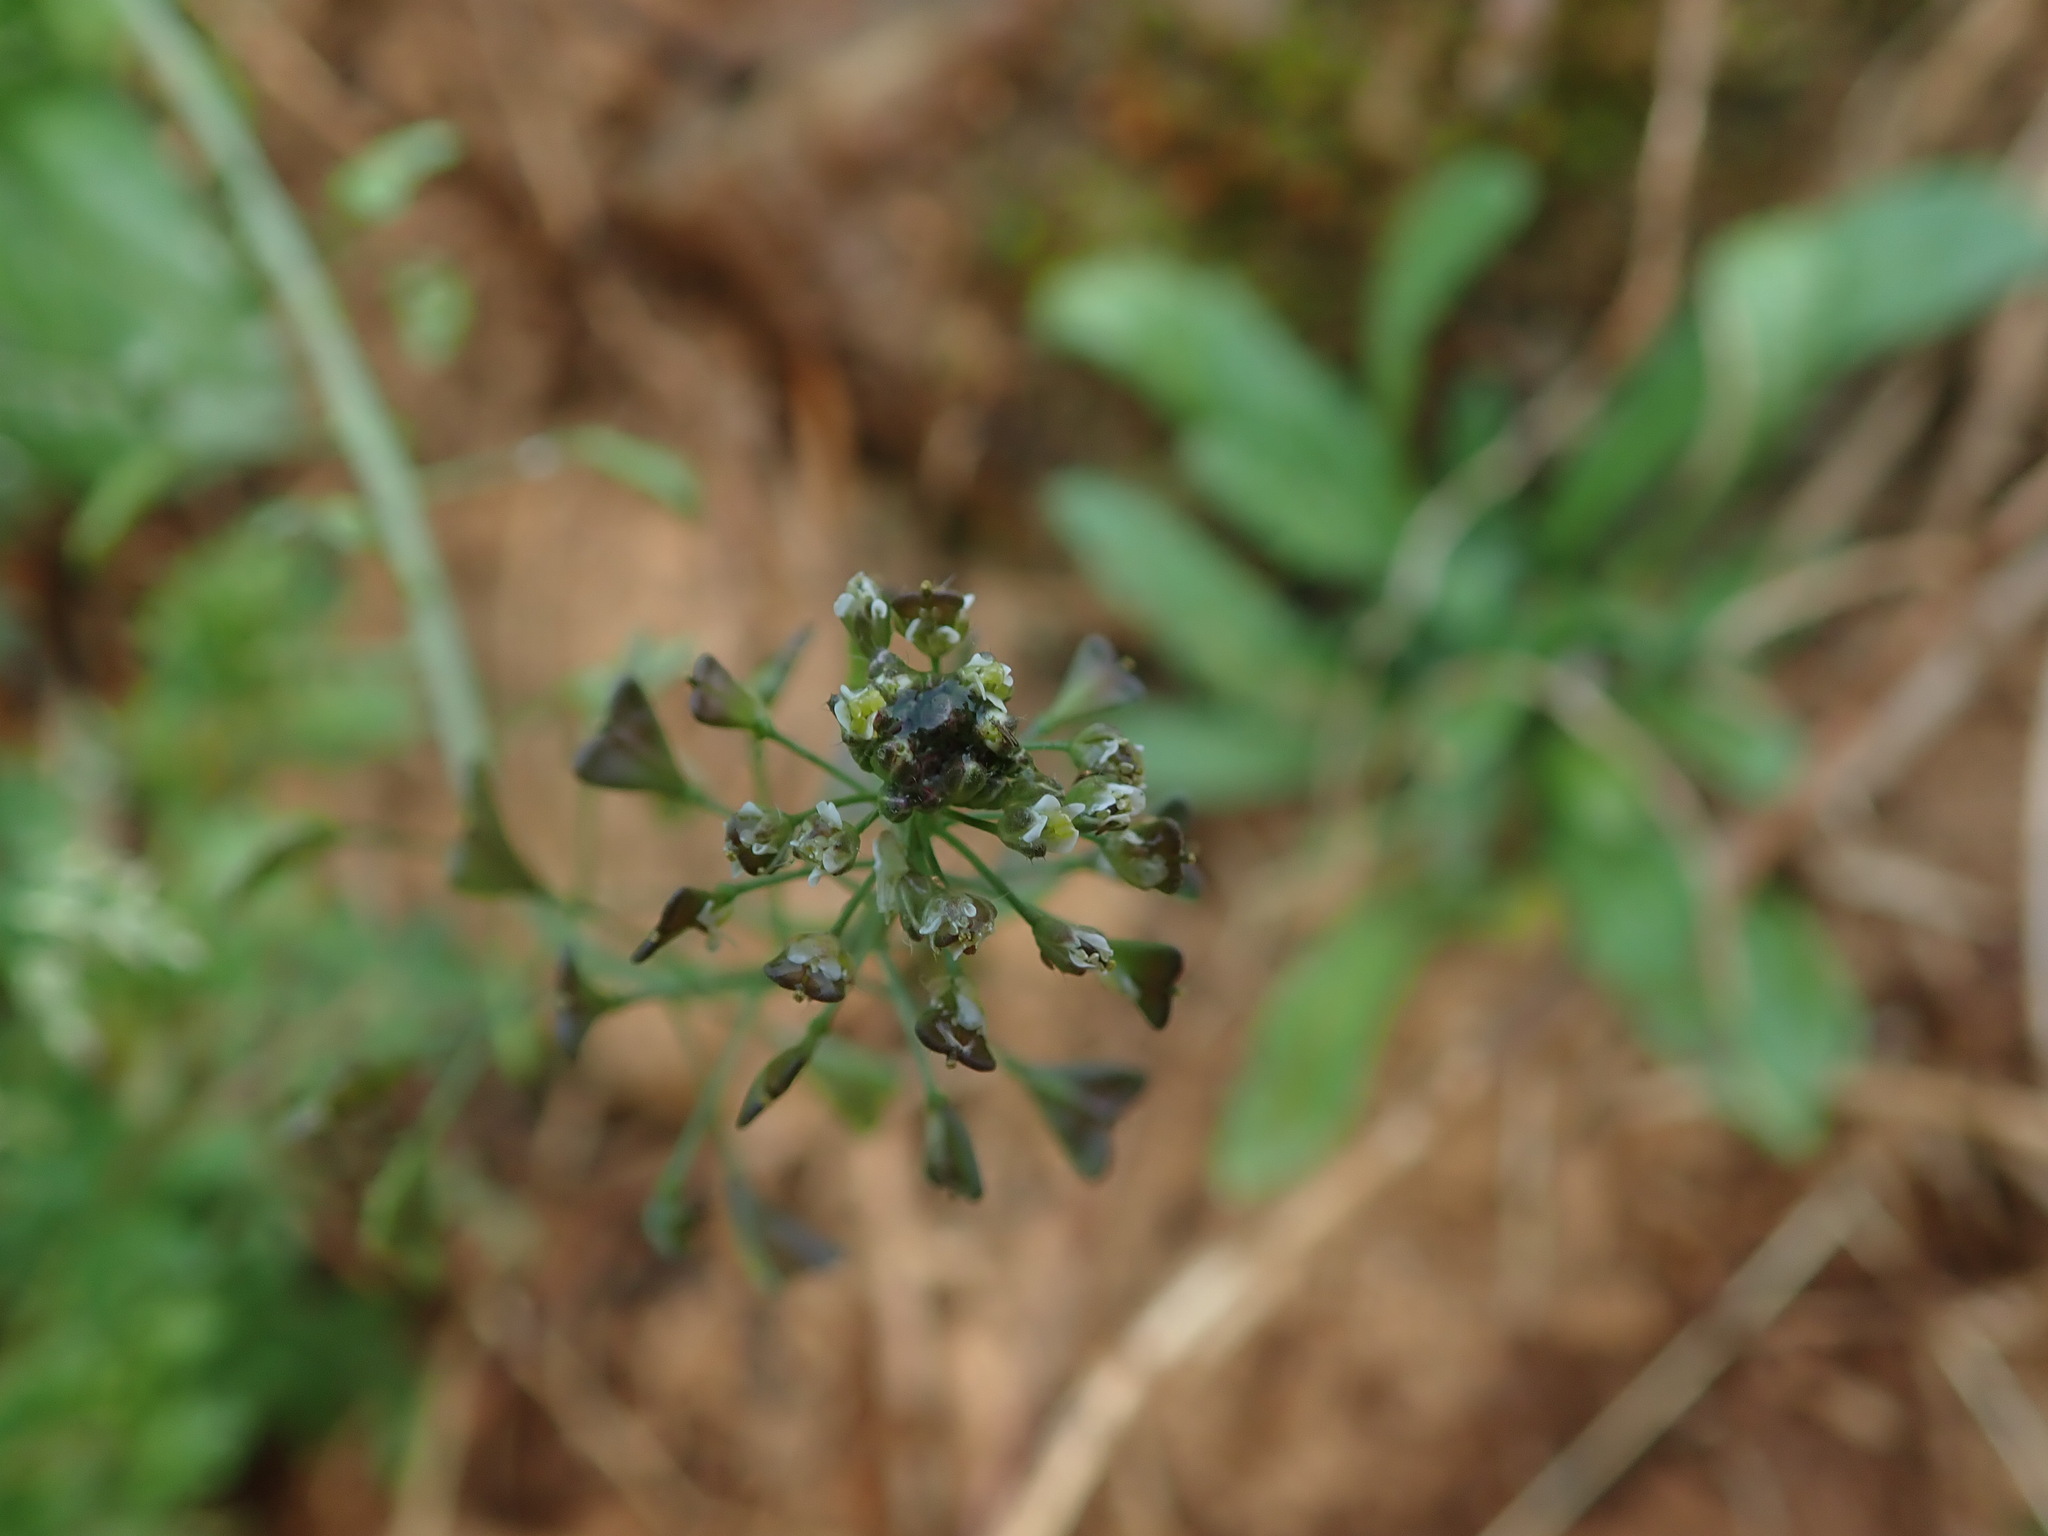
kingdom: Plantae
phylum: Tracheophyta
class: Magnoliopsida
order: Brassicales
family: Brassicaceae
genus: Capsella
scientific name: Capsella bursa-pastoris
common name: Shepherd's purse
